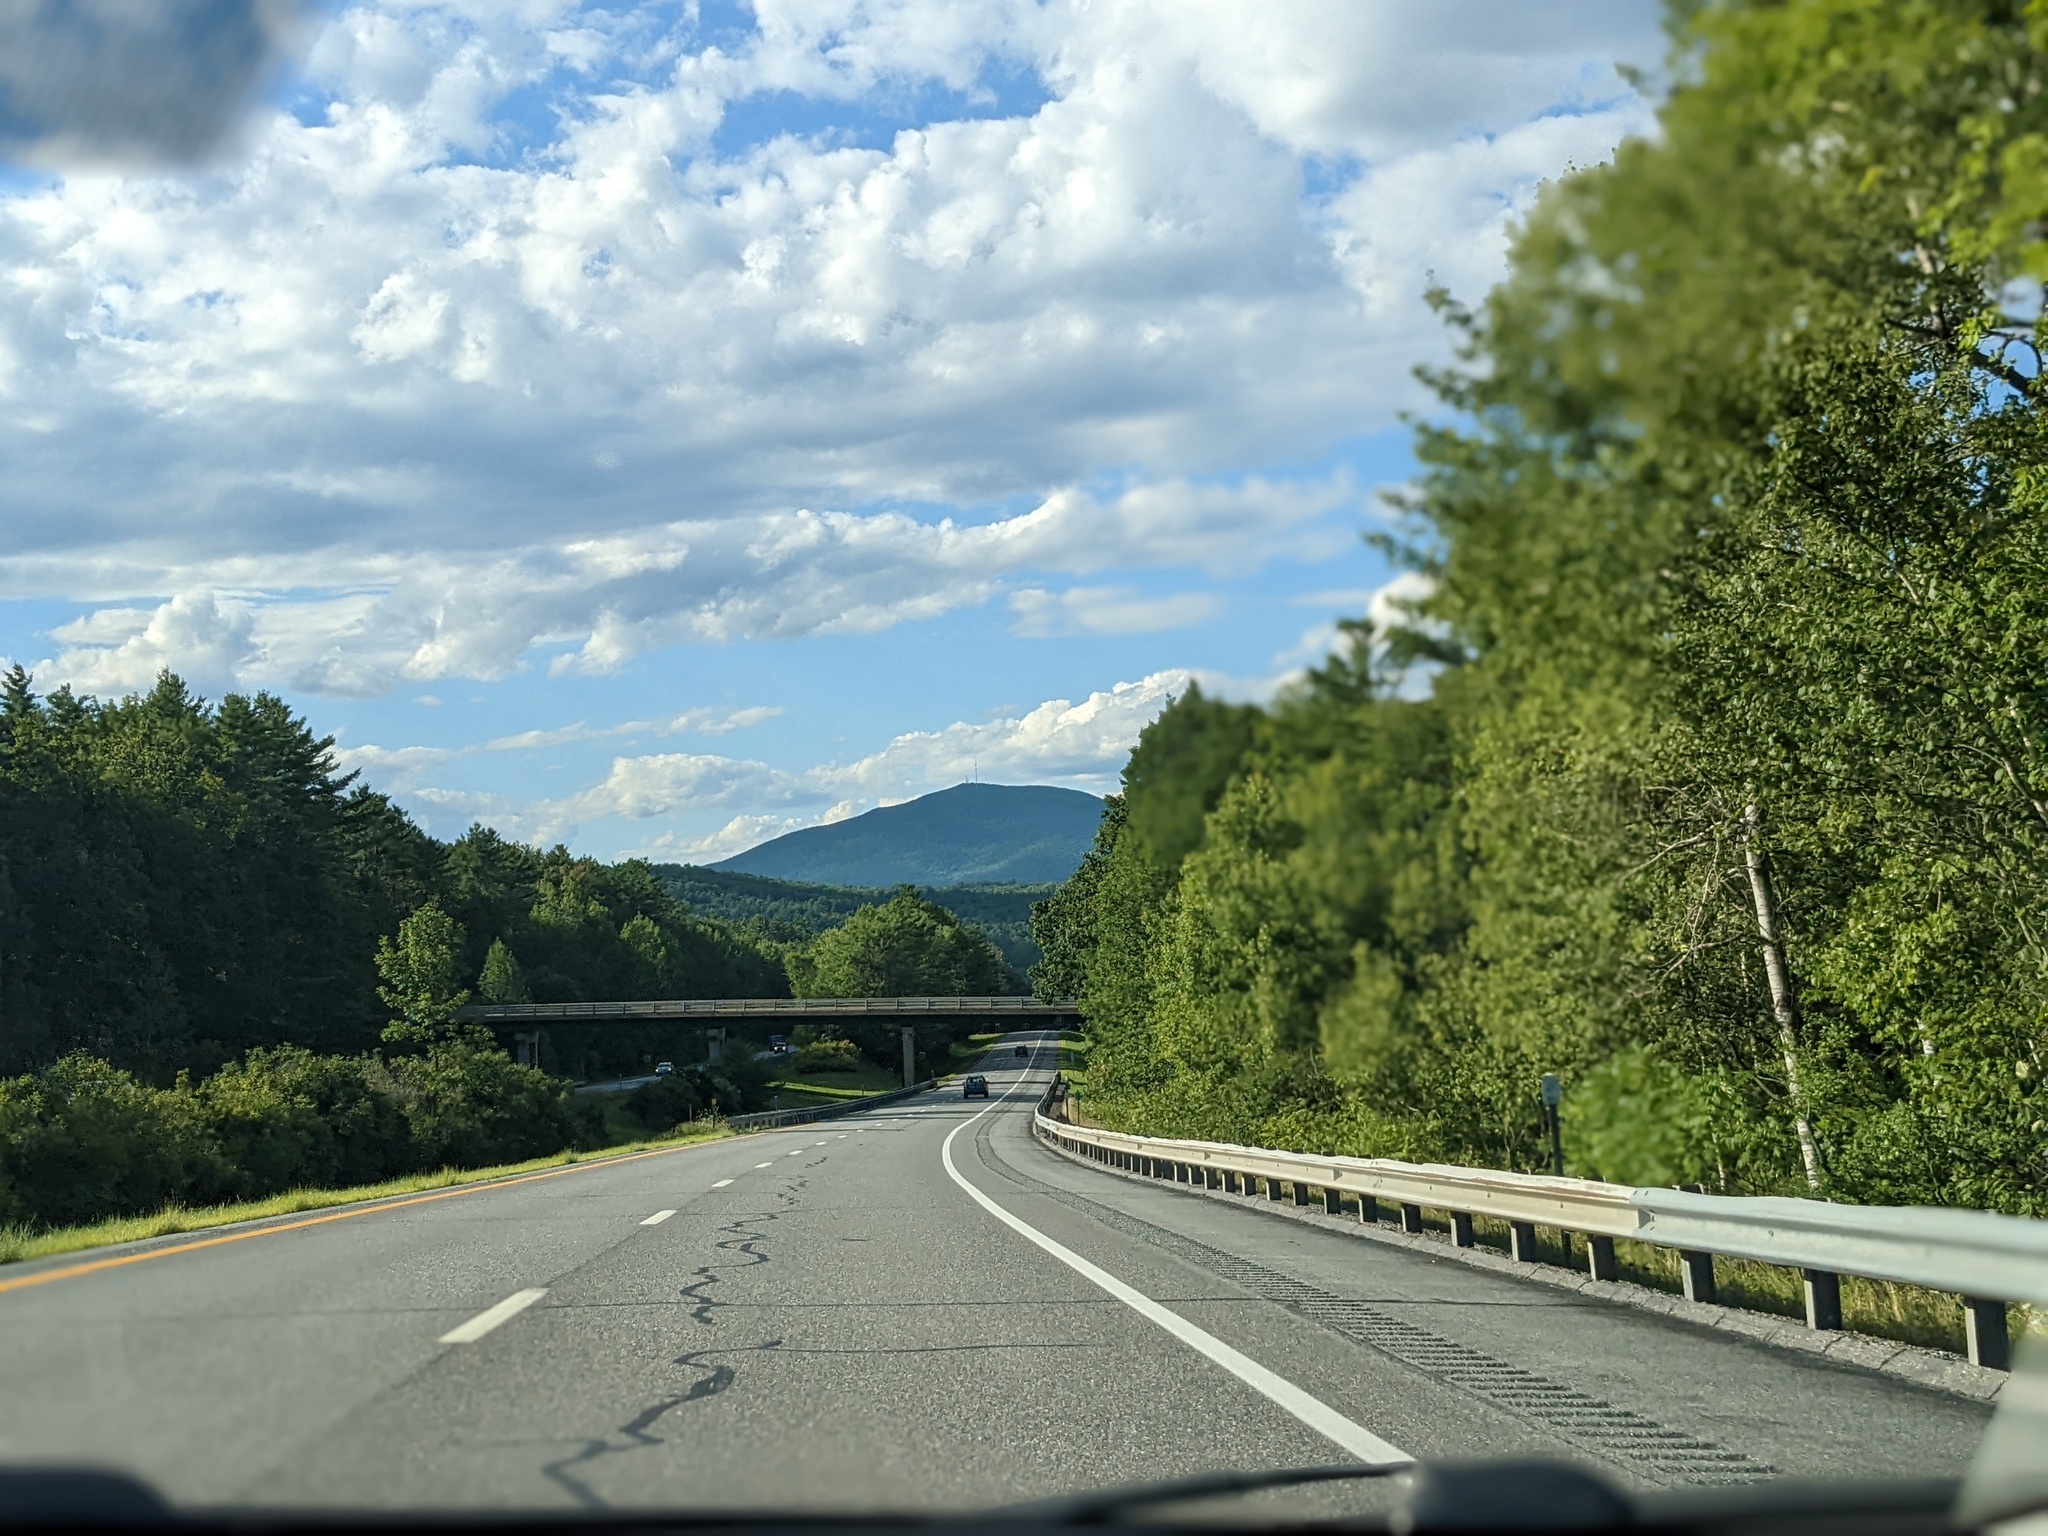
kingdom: Plantae
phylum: Tracheophyta
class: Pinopsida
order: Pinales
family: Pinaceae
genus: Pinus
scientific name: Pinus strobus
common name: Weymouth pine
